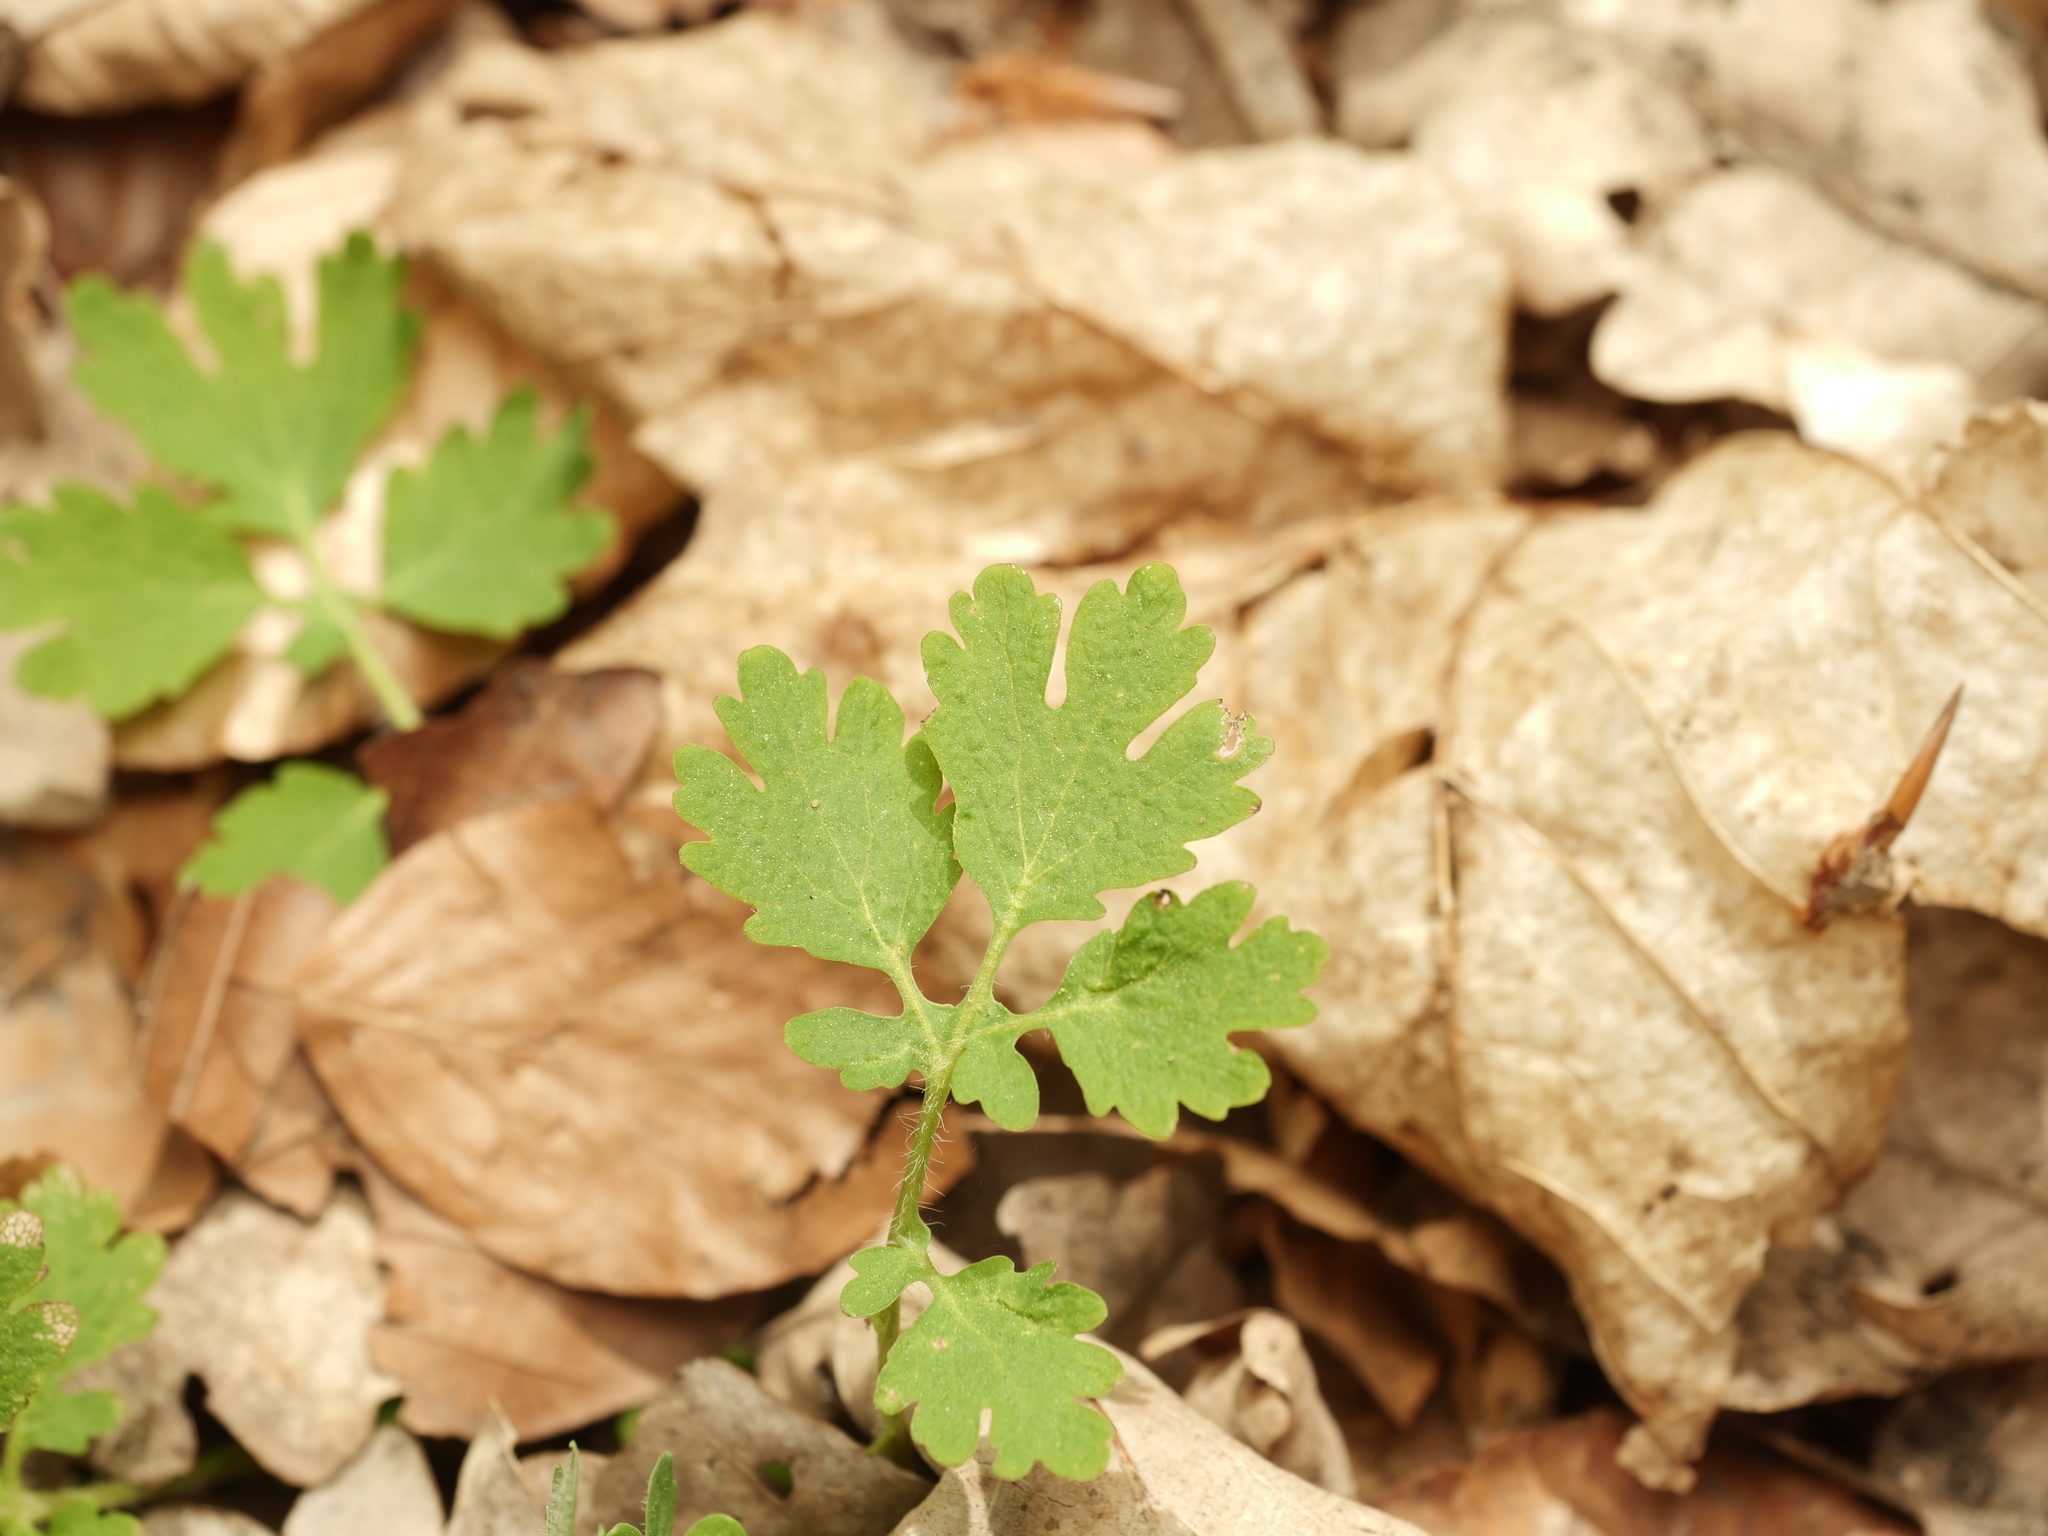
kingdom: Plantae
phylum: Tracheophyta
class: Magnoliopsida
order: Ranunculales
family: Papaveraceae
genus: Chelidonium
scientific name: Chelidonium majus
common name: Greater celandine
